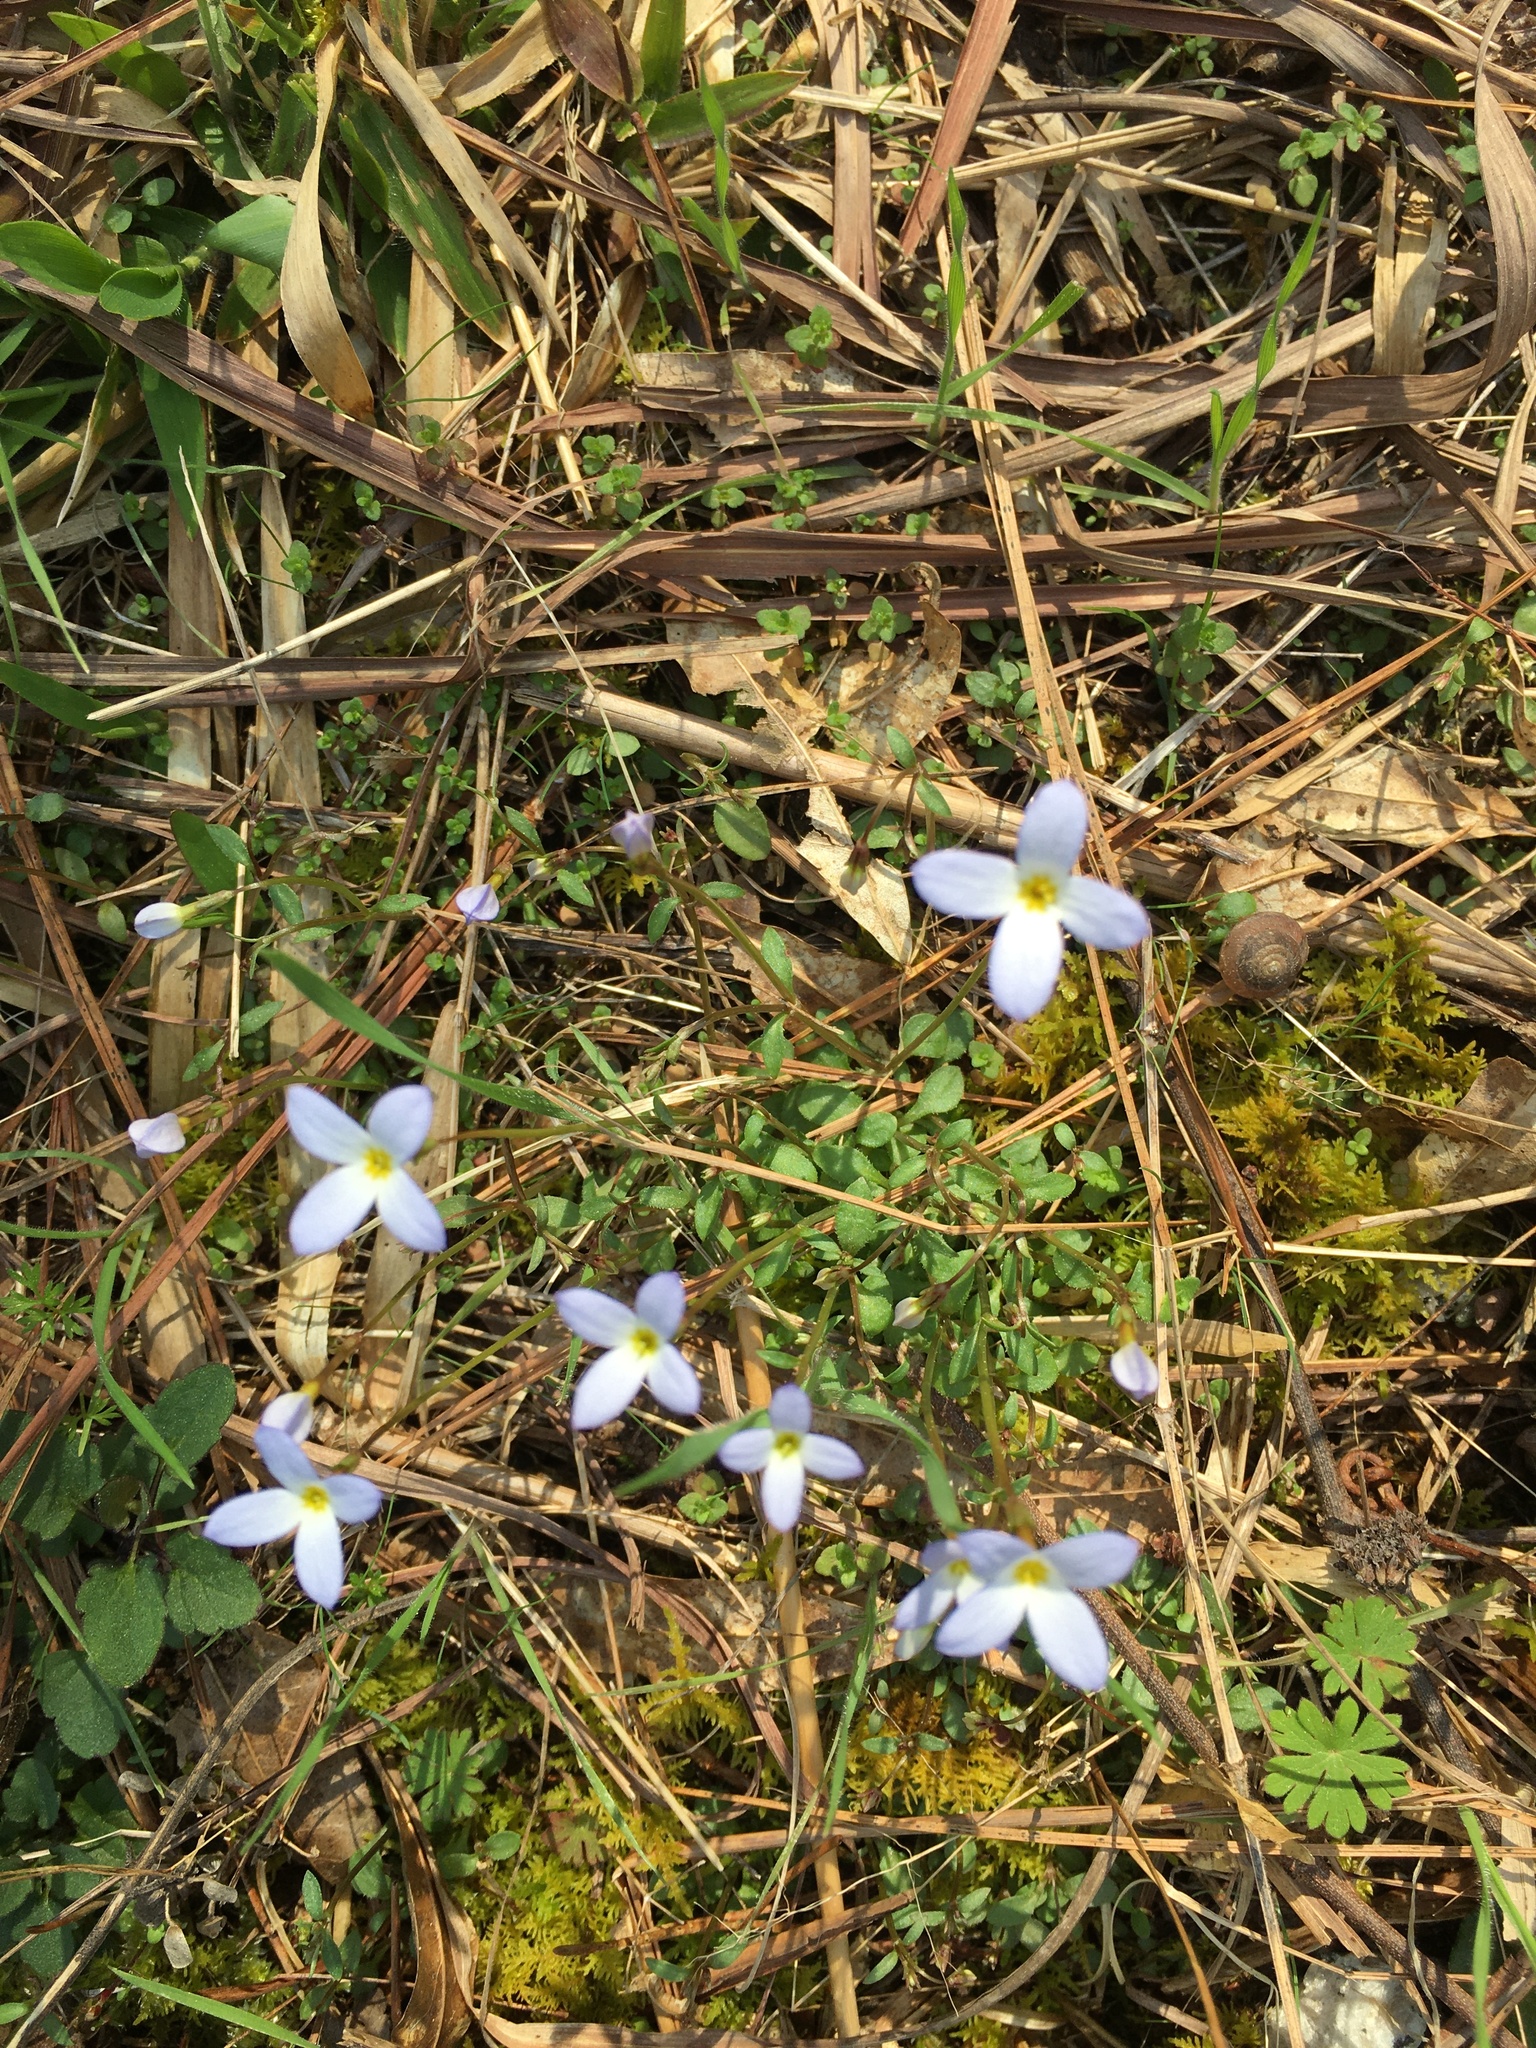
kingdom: Plantae
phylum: Tracheophyta
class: Magnoliopsida
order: Gentianales
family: Rubiaceae
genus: Houstonia
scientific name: Houstonia caerulea
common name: Bluets
